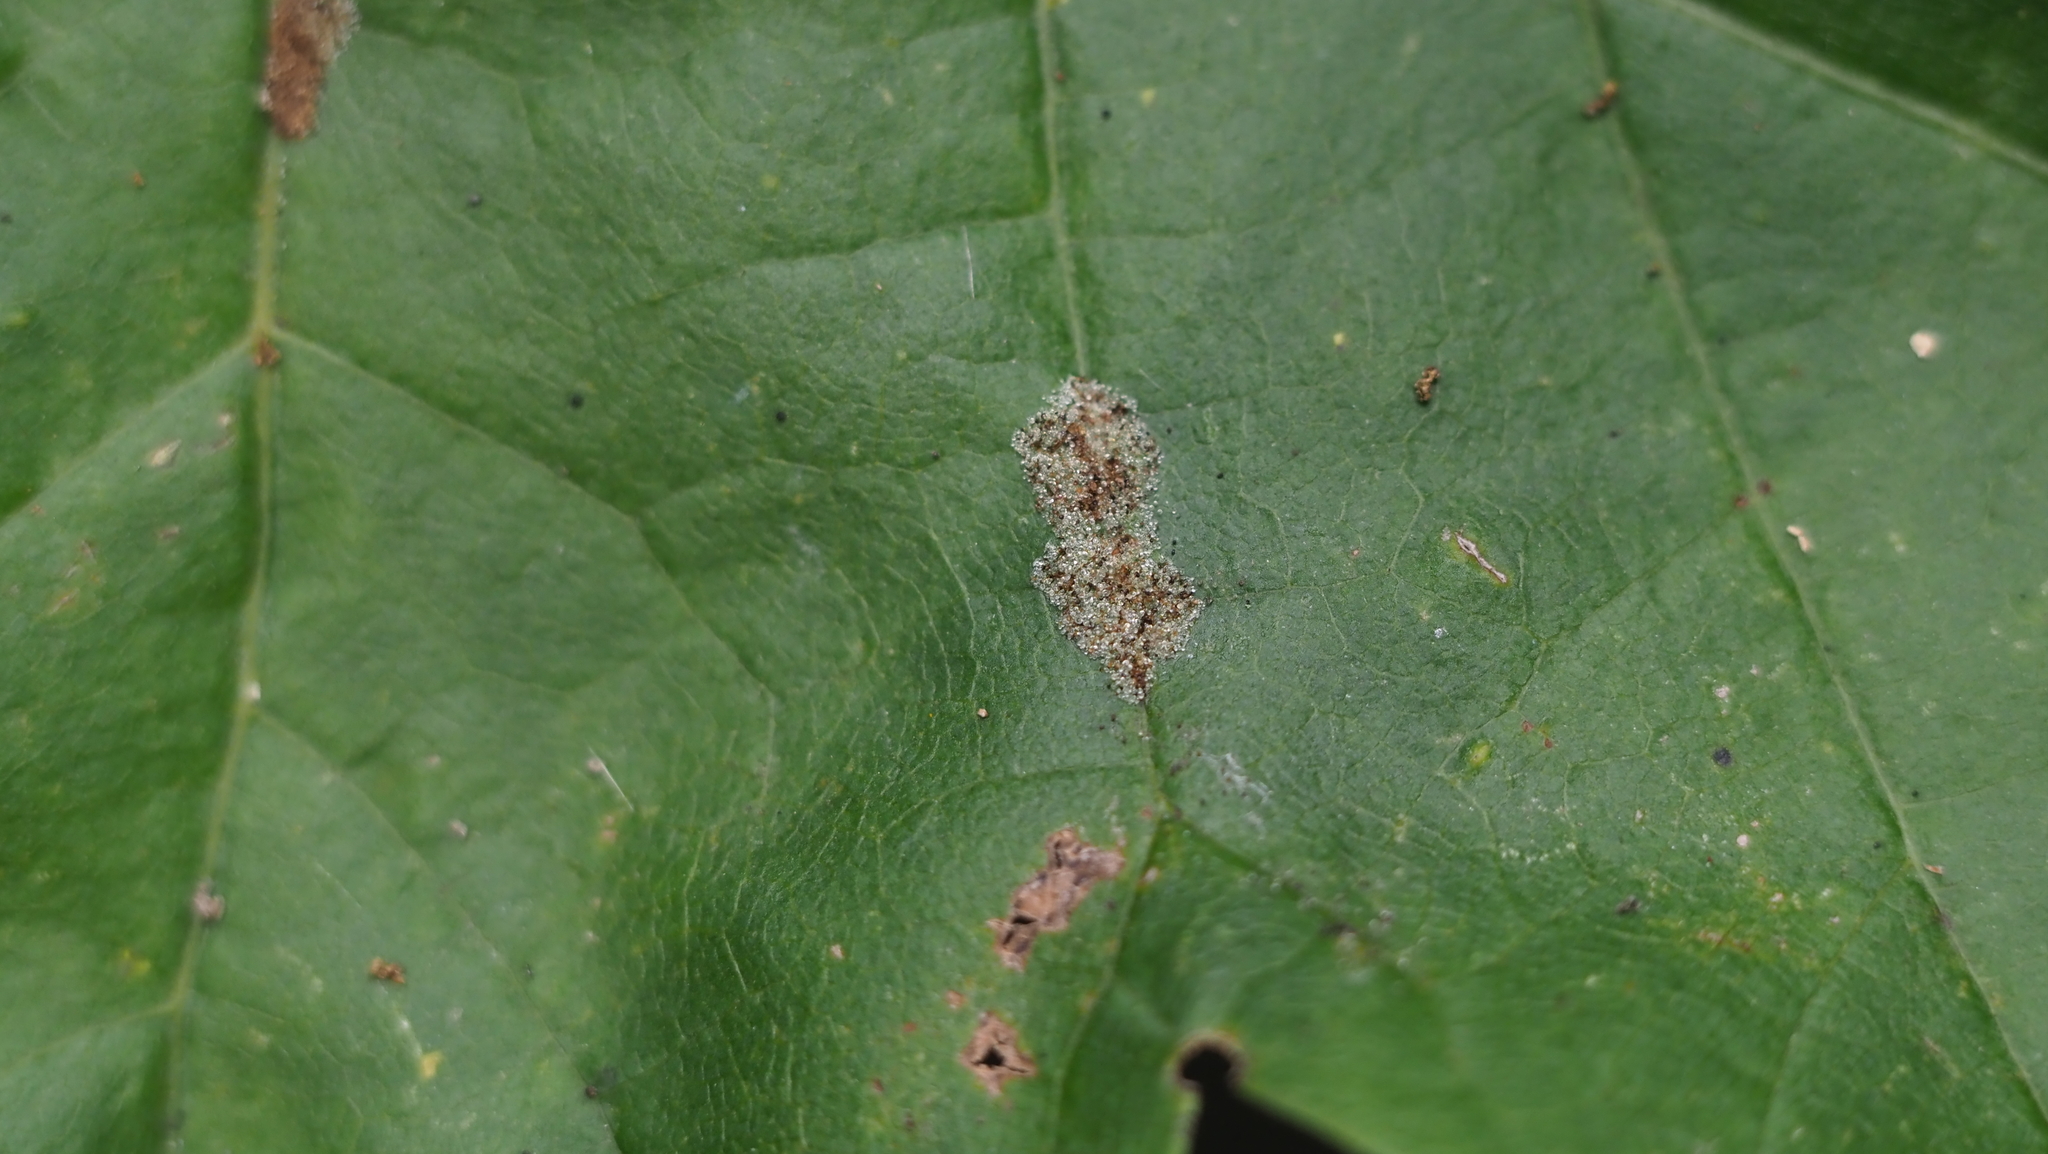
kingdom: Animalia
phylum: Arthropoda
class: Arachnida
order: Trombidiformes
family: Eriophyidae
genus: Aculus
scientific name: Aculus
